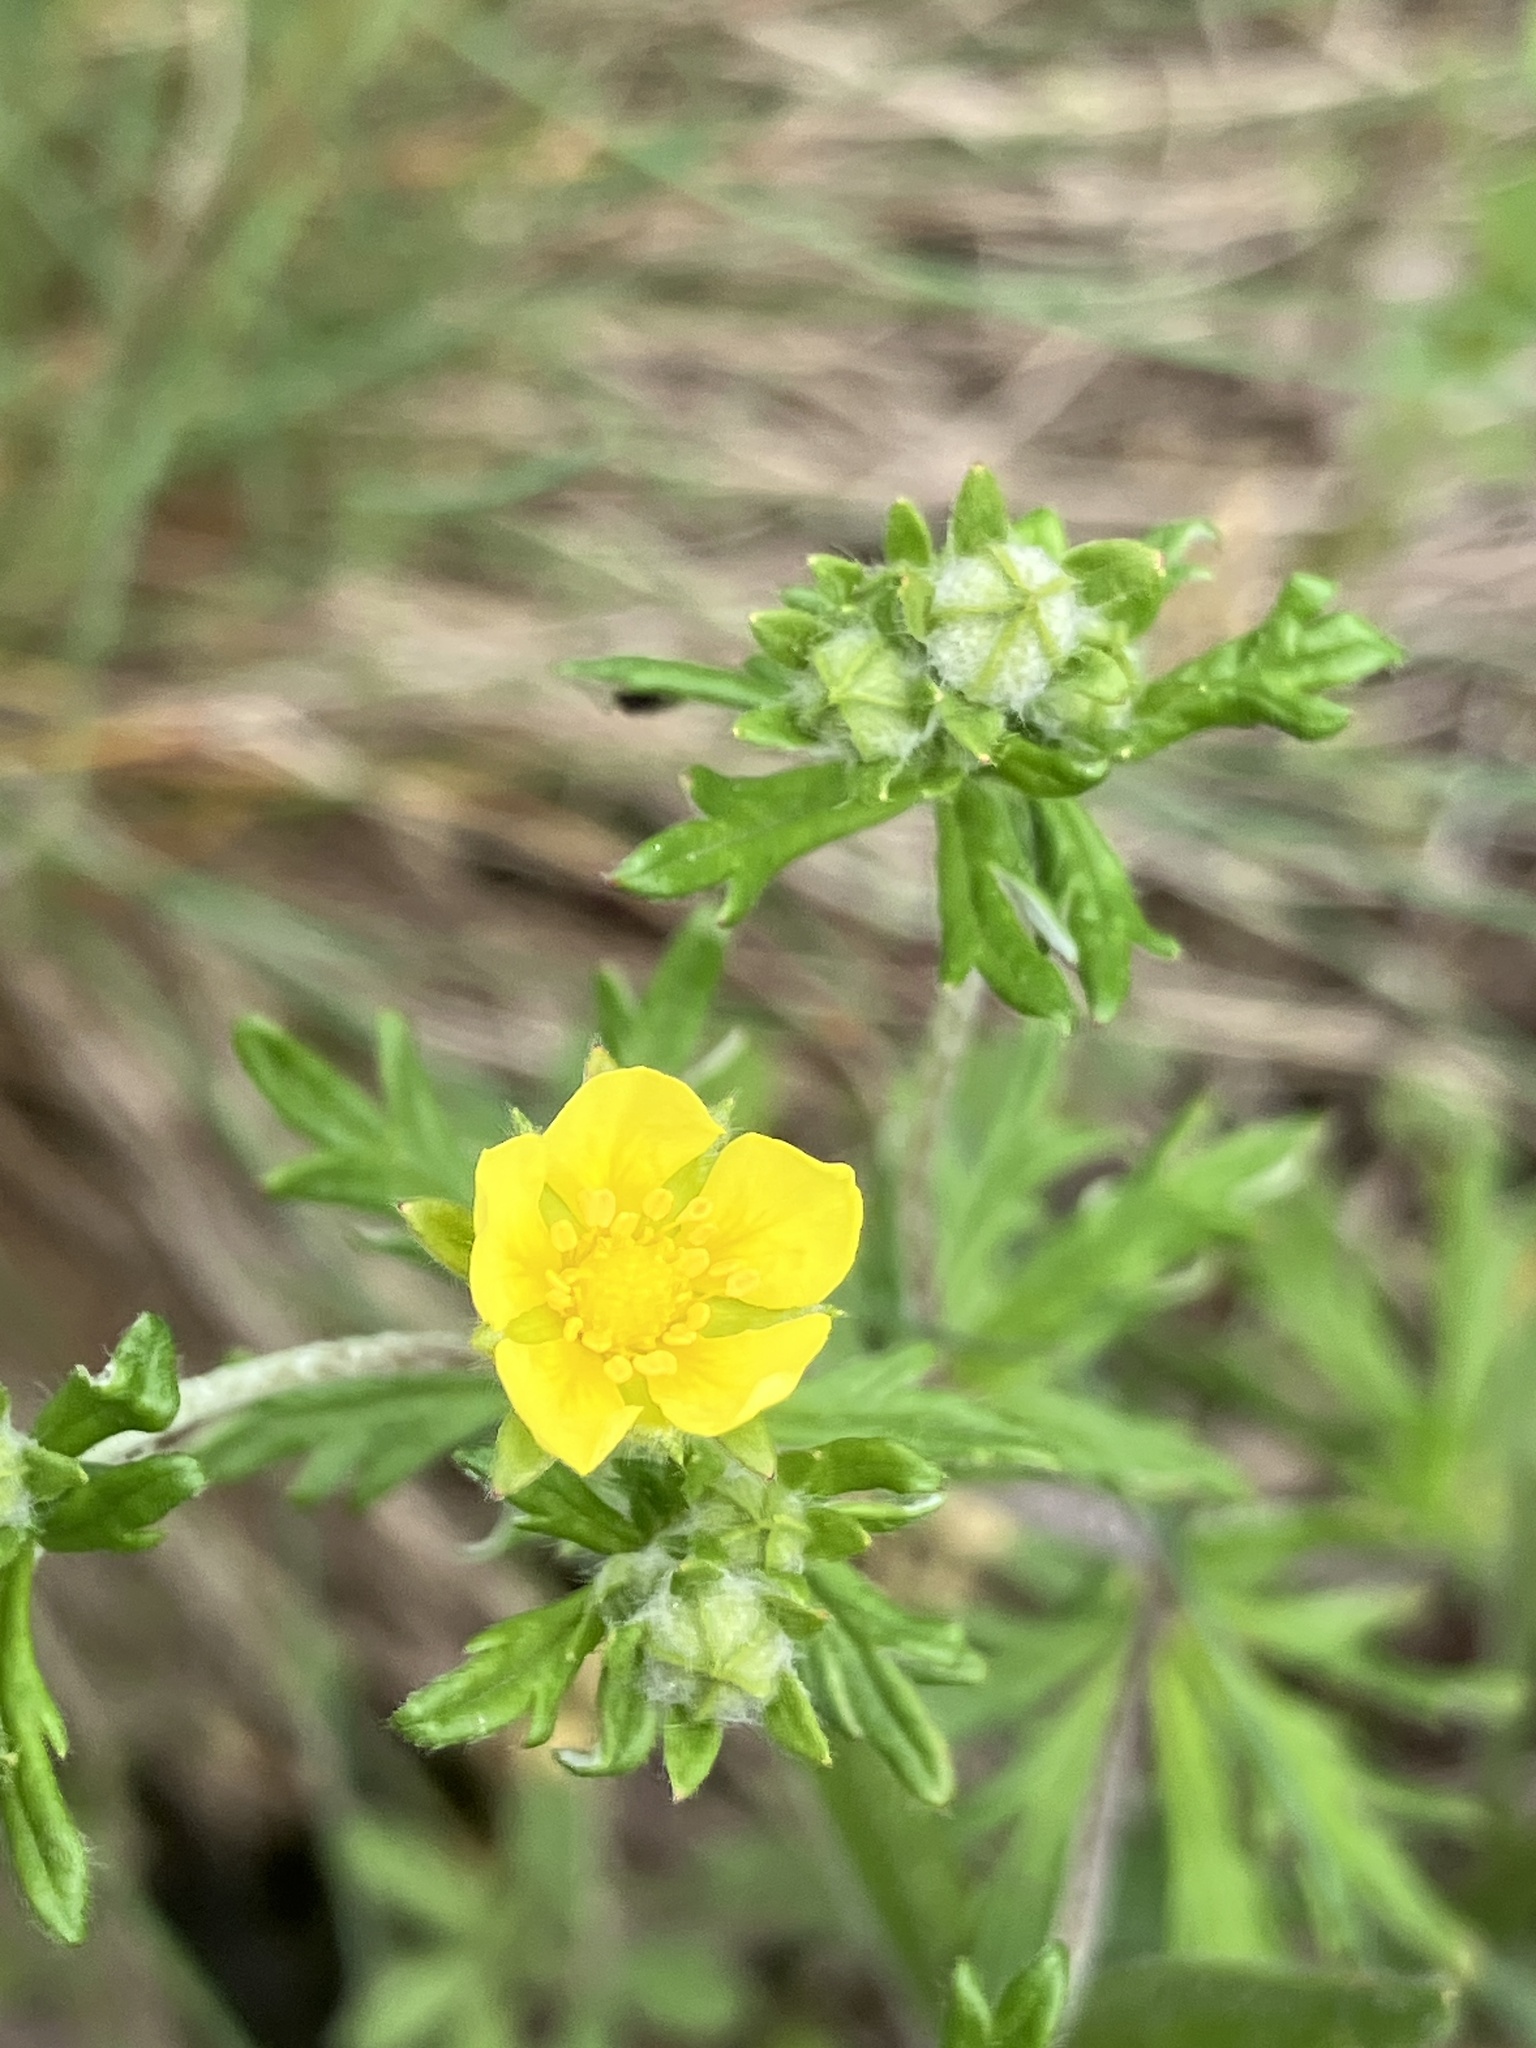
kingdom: Plantae
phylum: Tracheophyta
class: Magnoliopsida
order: Rosales
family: Rosaceae
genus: Potentilla
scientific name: Potentilla argentea
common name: Hoary cinquefoil
